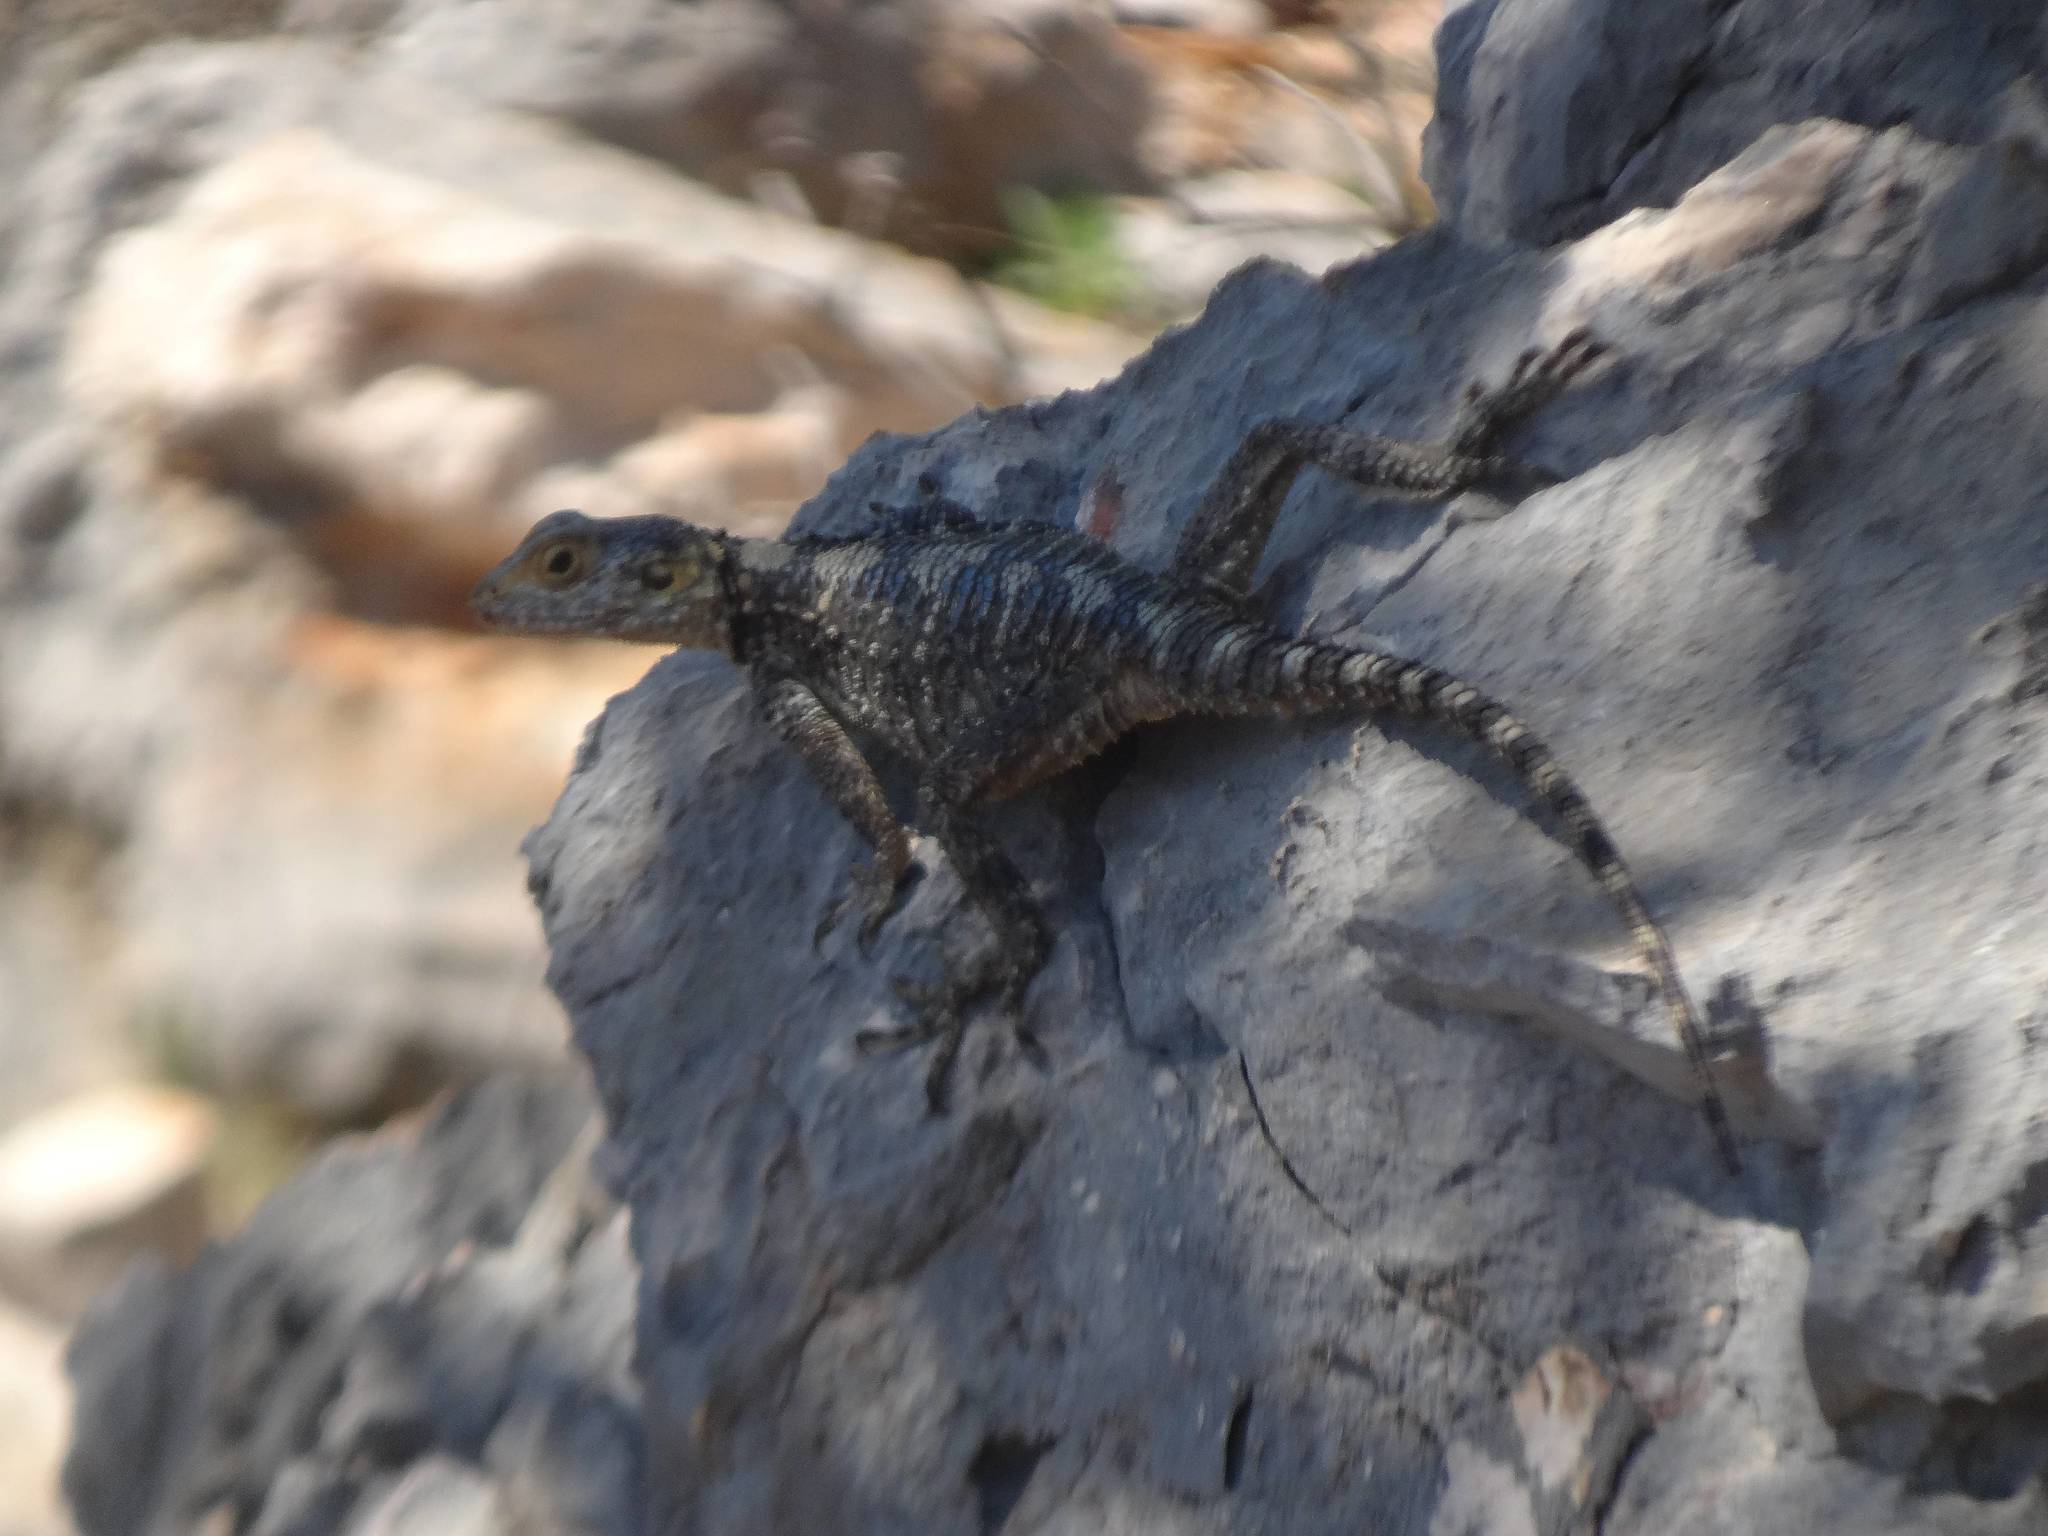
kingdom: Animalia
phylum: Chordata
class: Squamata
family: Agamidae
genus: Stellagama
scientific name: Stellagama stellio
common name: Starred agama
